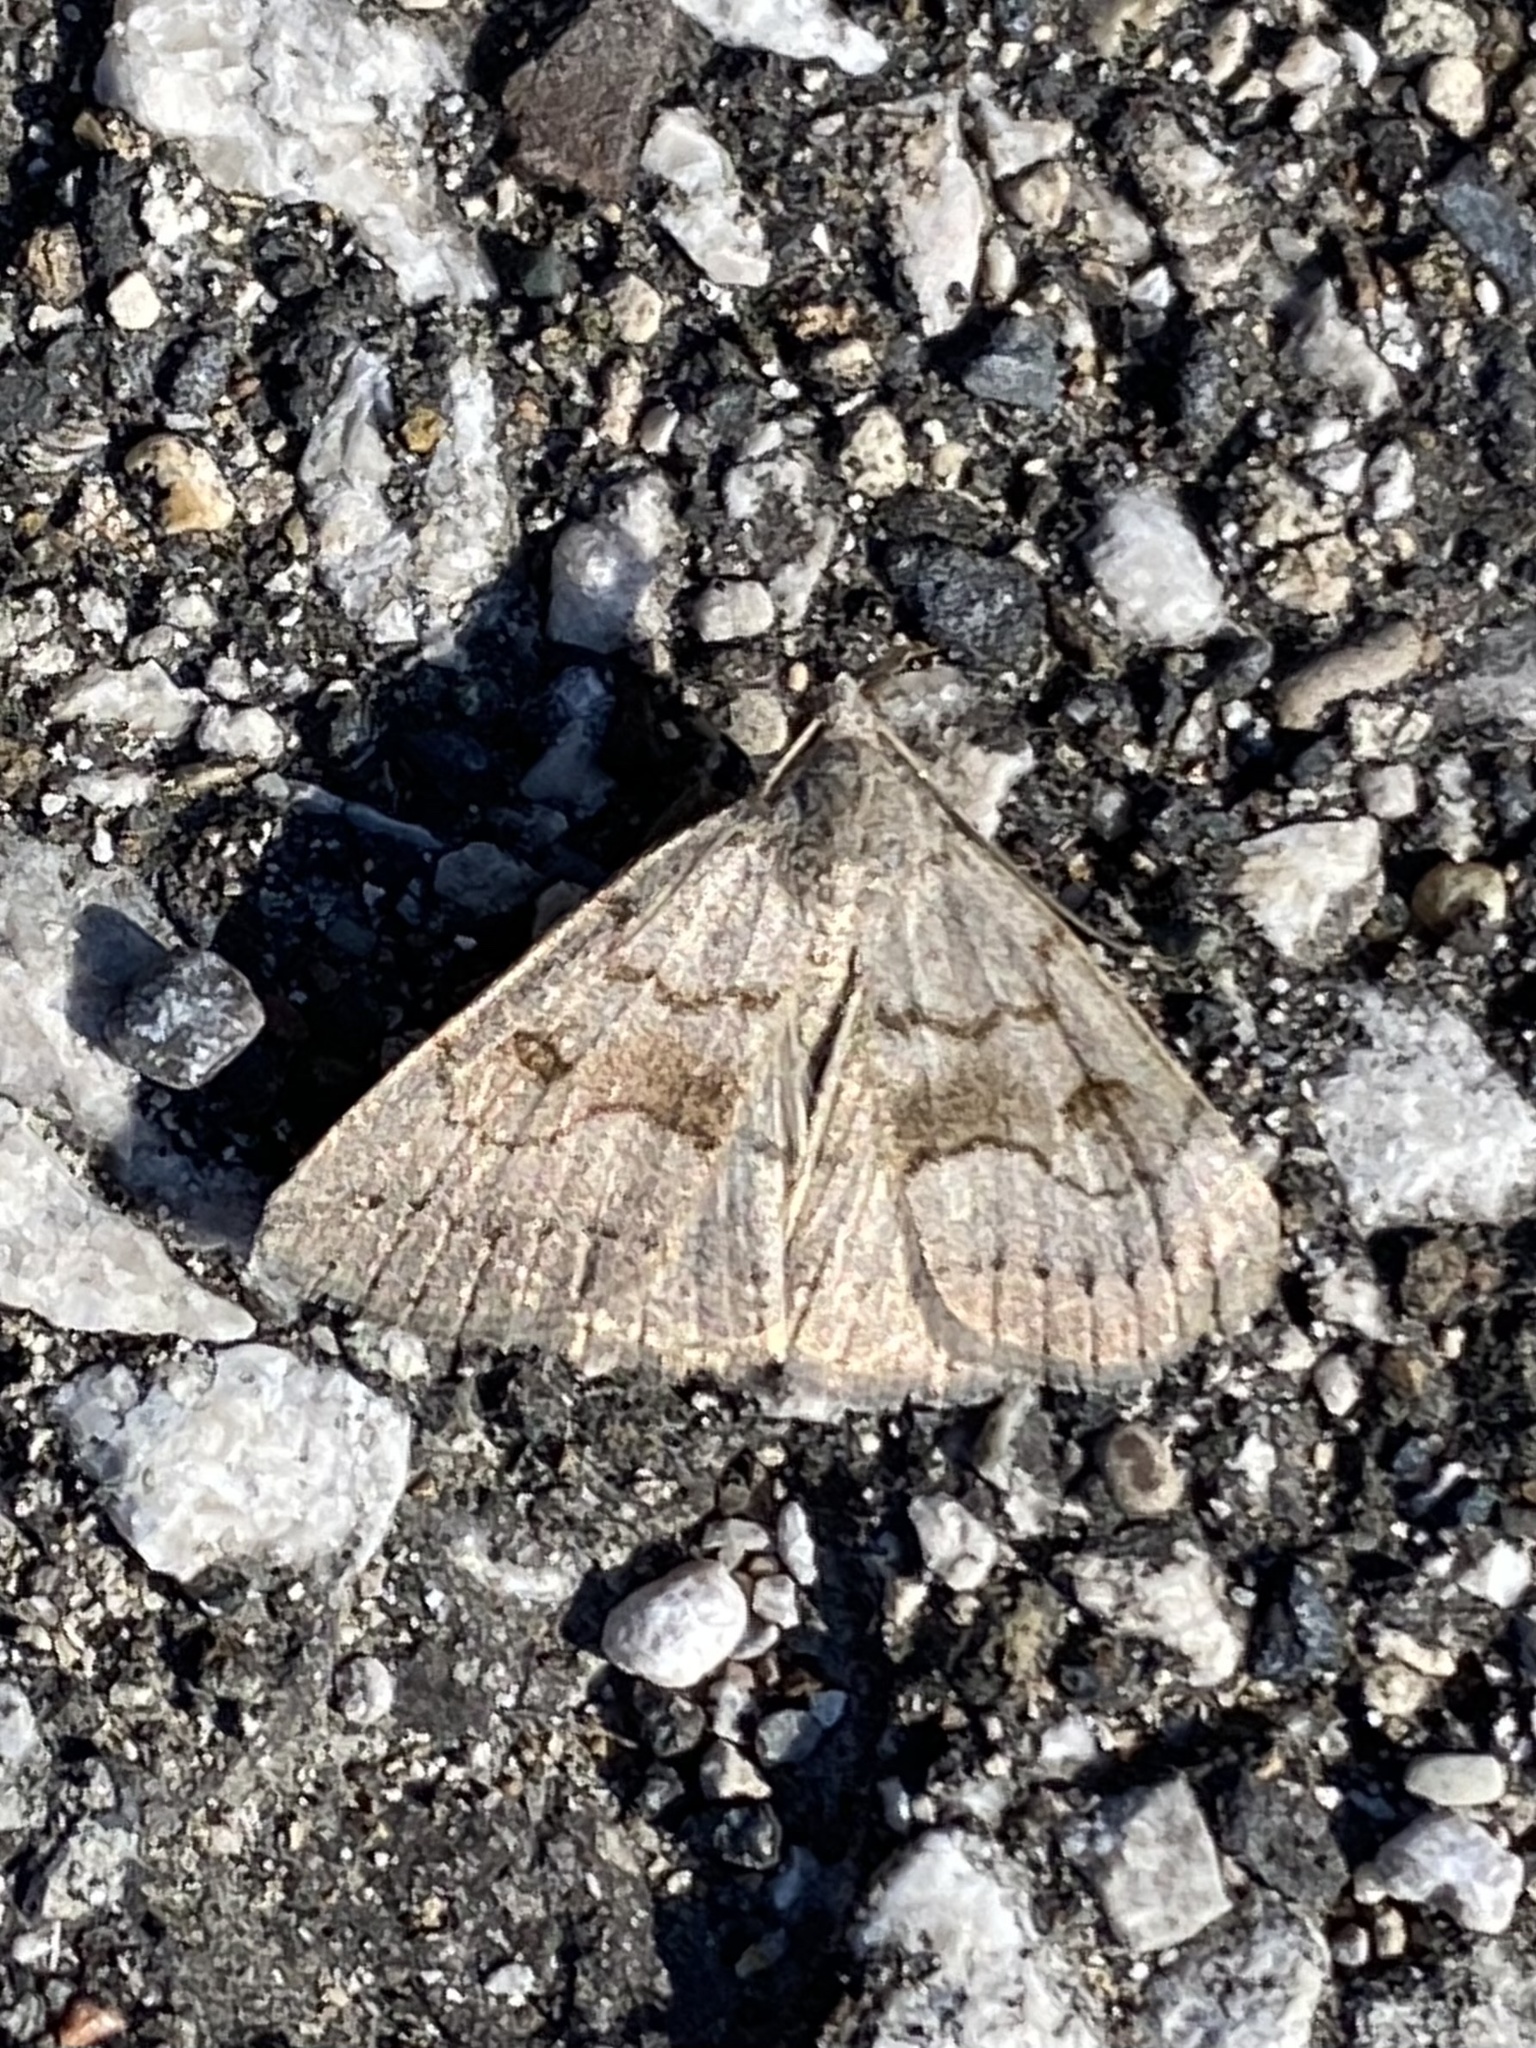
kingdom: Animalia
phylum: Arthropoda
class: Insecta
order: Lepidoptera
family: Erebidae
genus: Macrochilo
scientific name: Macrochilo morbidalis
